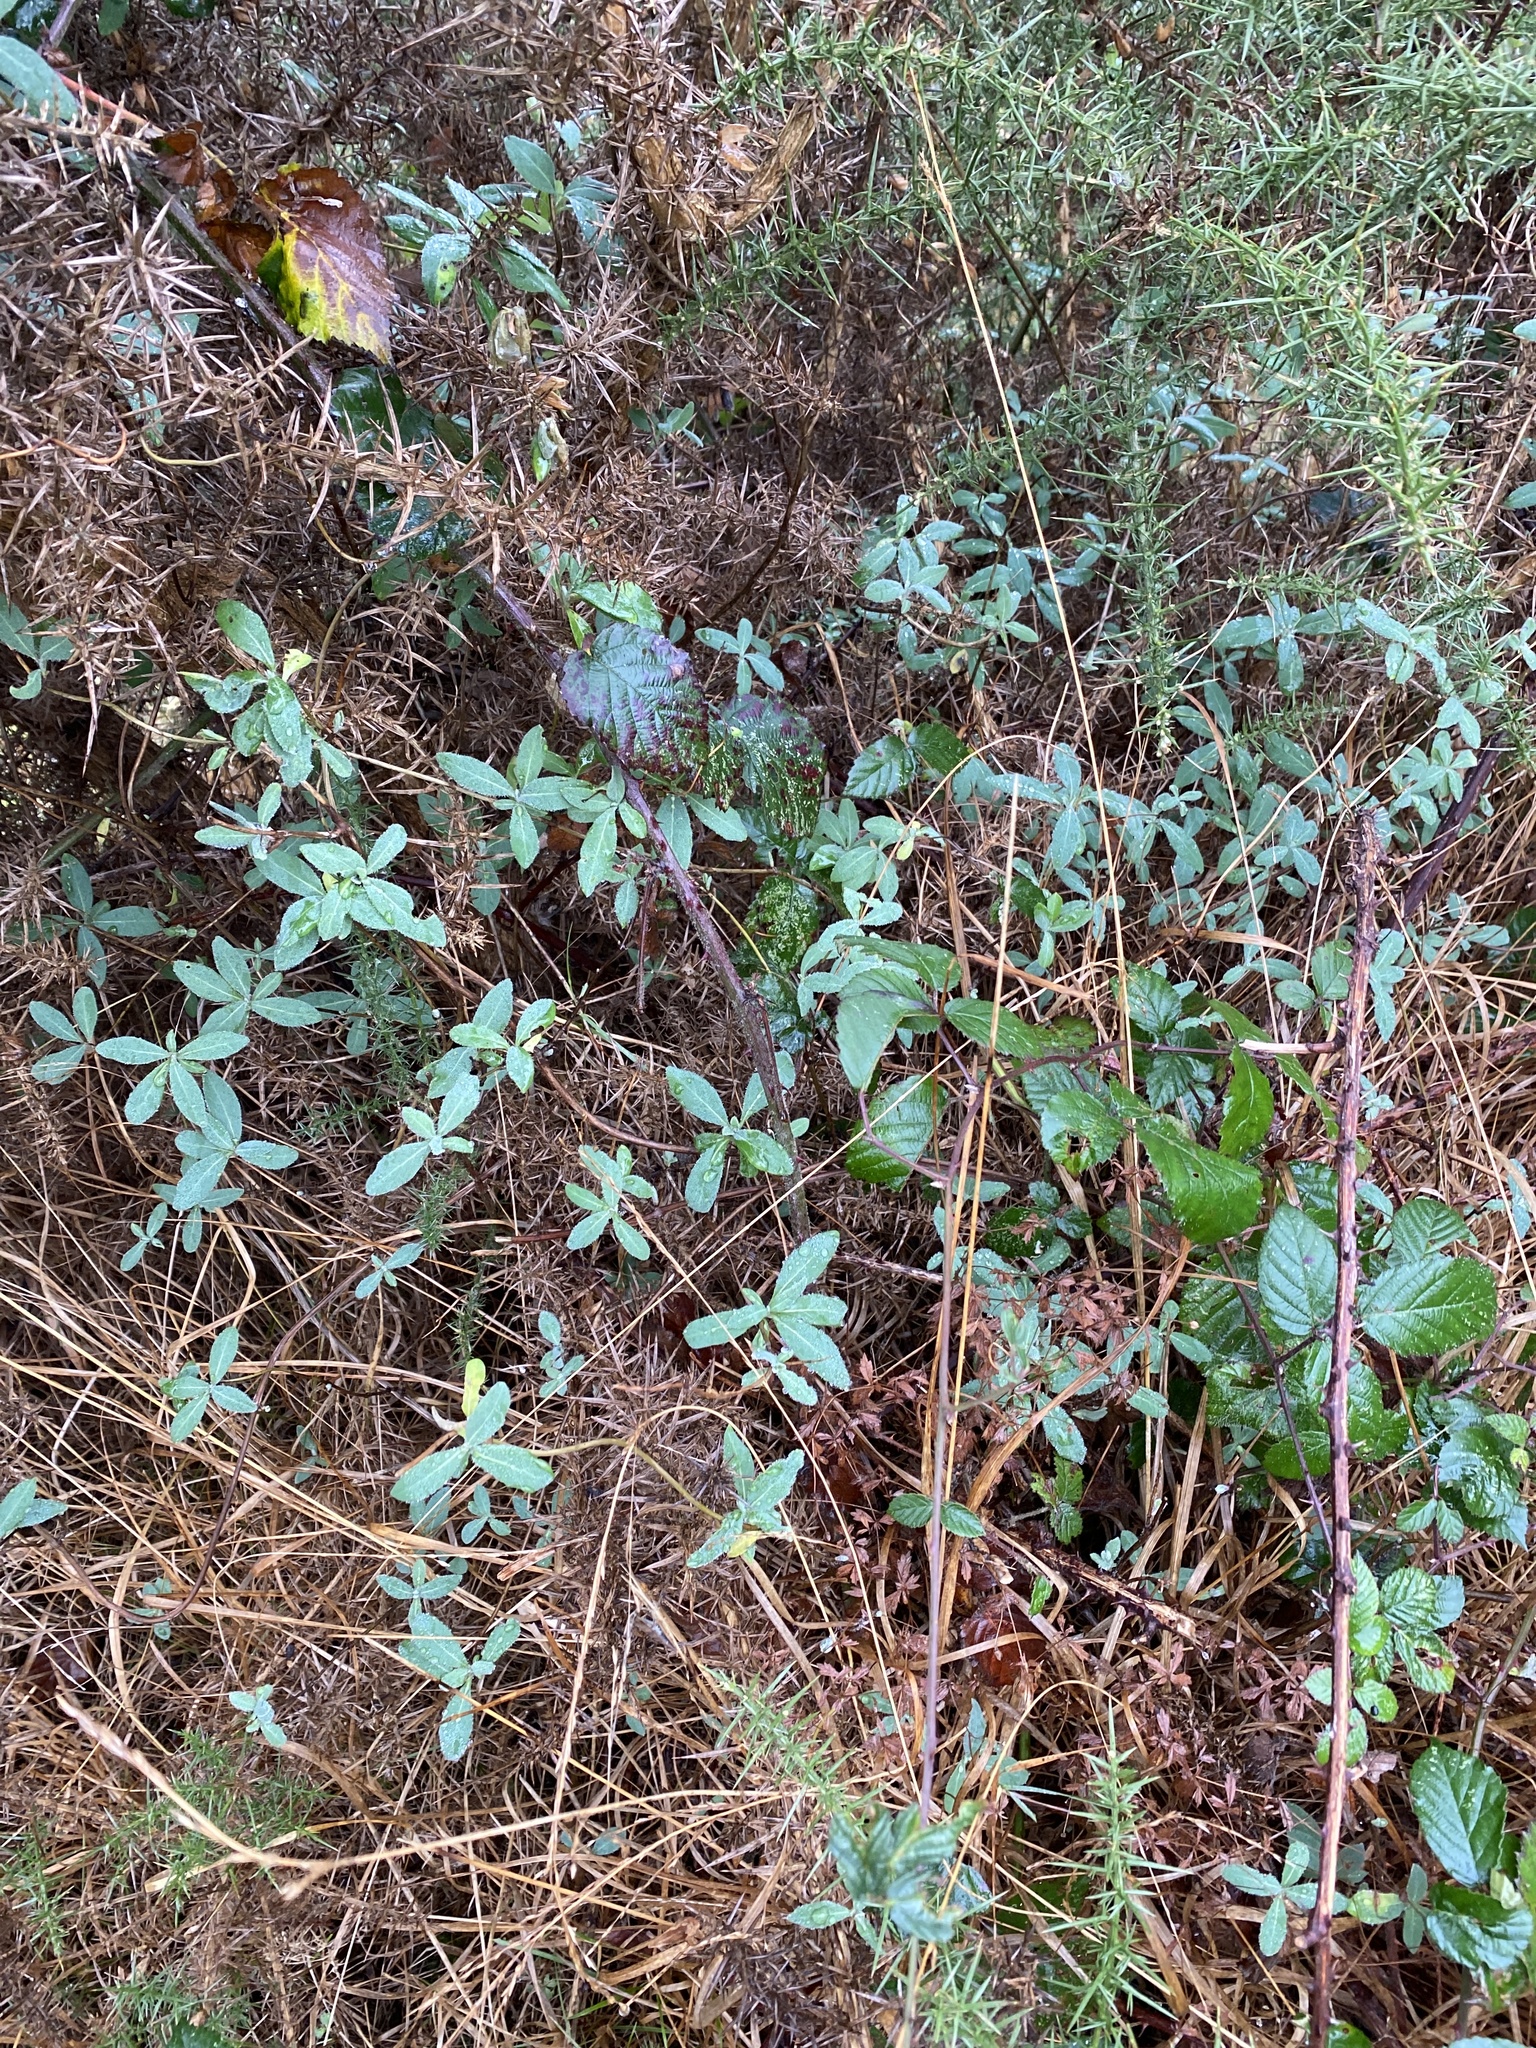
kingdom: Plantae
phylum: Tracheophyta
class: Magnoliopsida
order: Dipsacales
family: Caprifoliaceae
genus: Lonicera
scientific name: Lonicera periclymenum
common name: European honeysuckle
